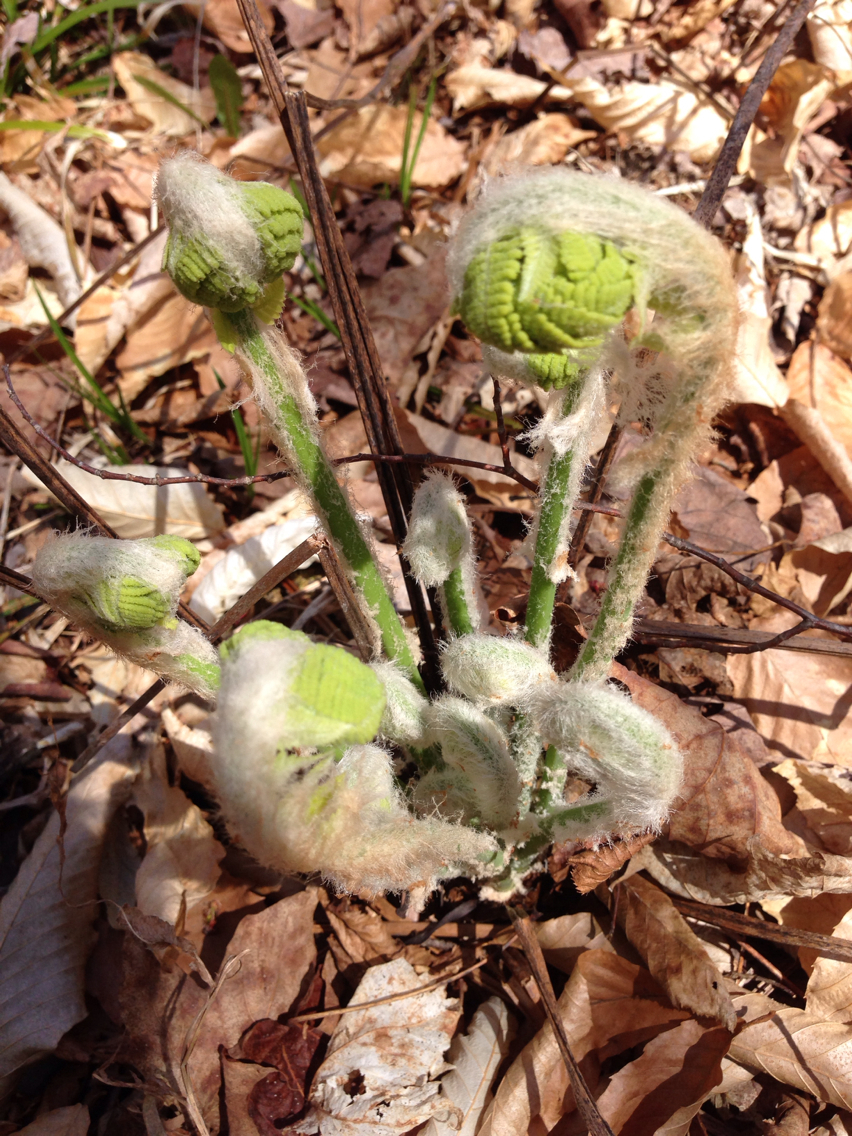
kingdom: Plantae
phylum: Tracheophyta
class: Polypodiopsida
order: Osmundales
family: Osmundaceae
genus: Osmundastrum
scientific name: Osmundastrum cinnamomeum
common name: Cinnamon fern
